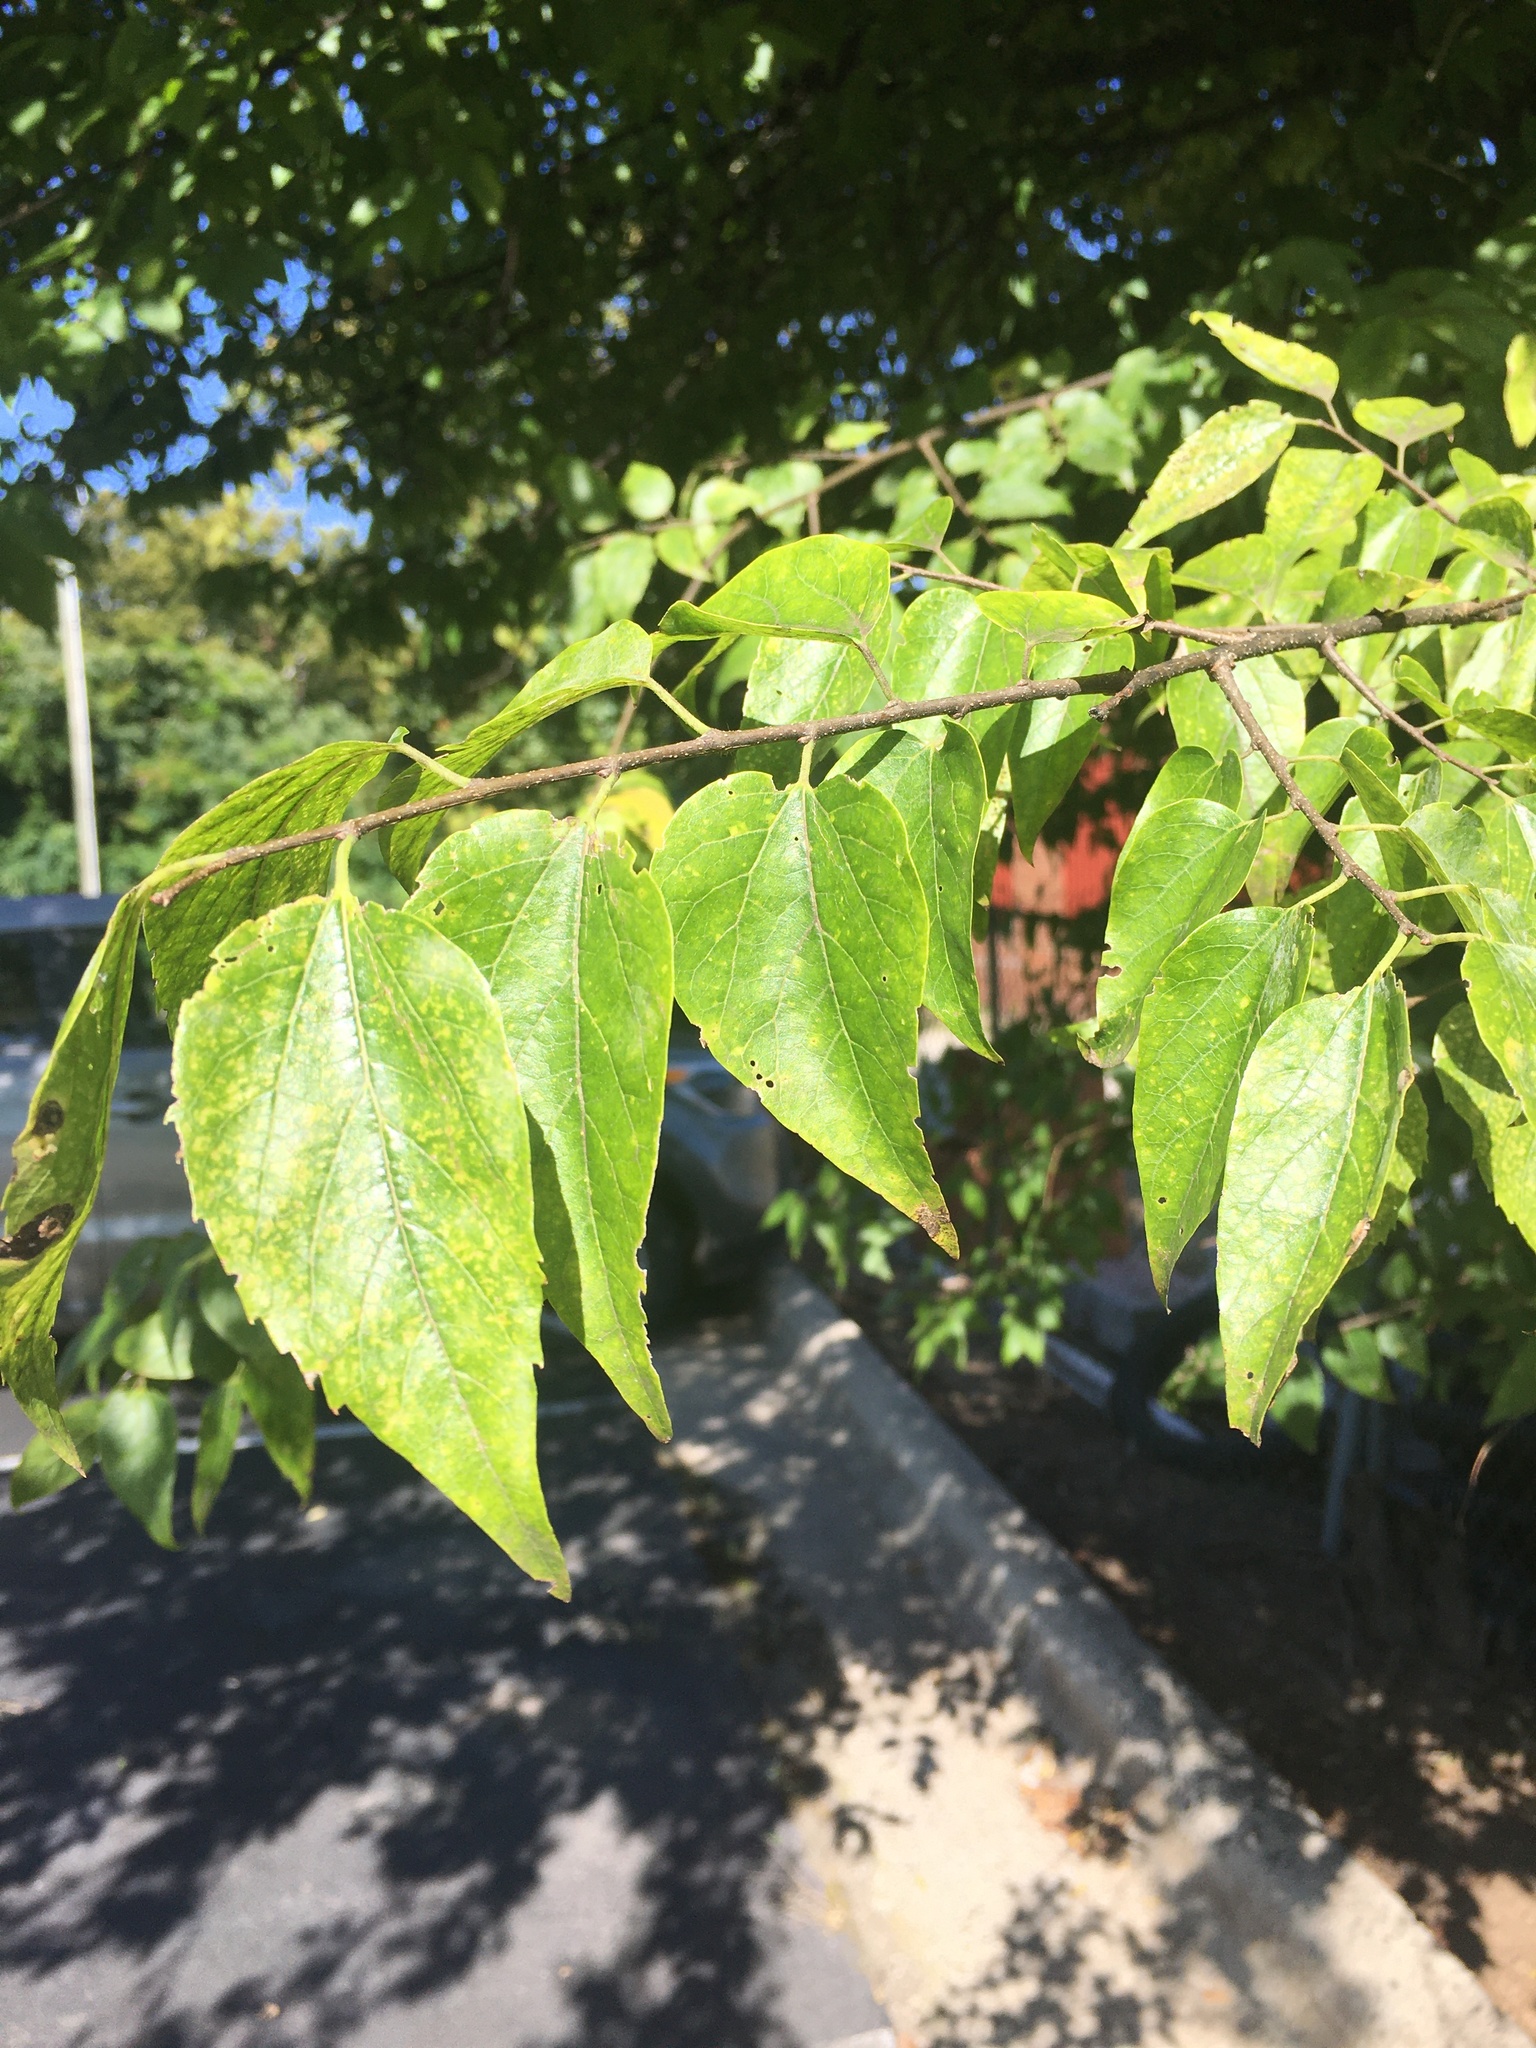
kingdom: Plantae
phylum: Tracheophyta
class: Magnoliopsida
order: Rosales
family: Cannabaceae
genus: Celtis
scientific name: Celtis laevigata
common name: Sugarberry
